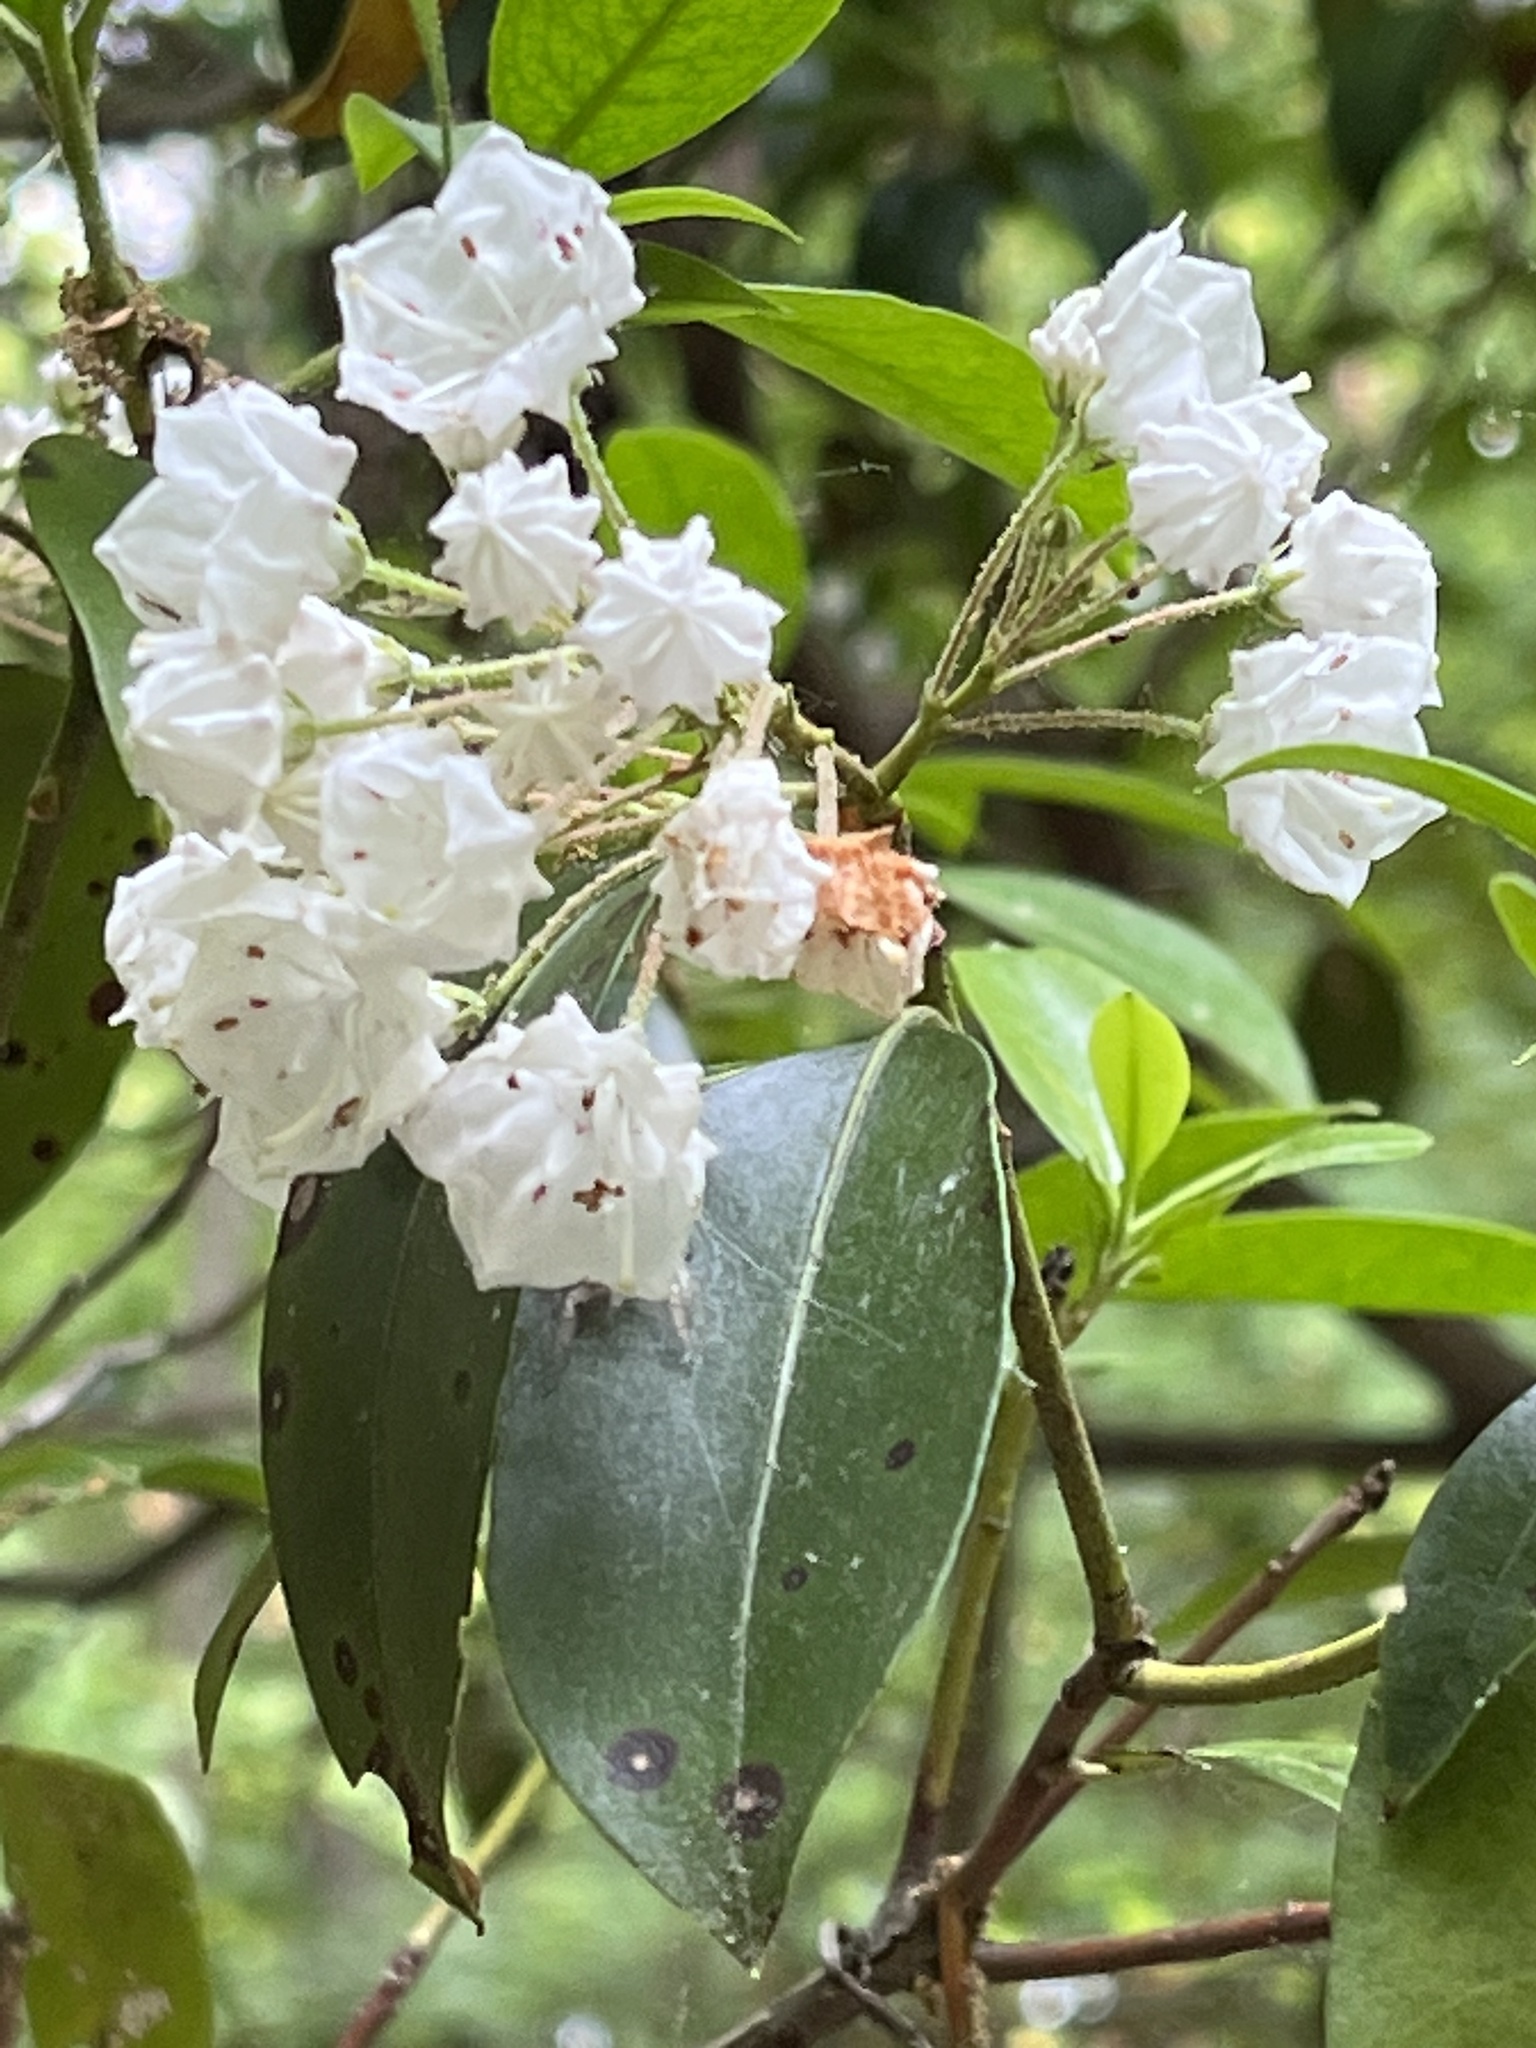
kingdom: Plantae
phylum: Tracheophyta
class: Magnoliopsida
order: Ericales
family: Ericaceae
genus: Kalmia
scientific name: Kalmia latifolia
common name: Mountain-laurel
